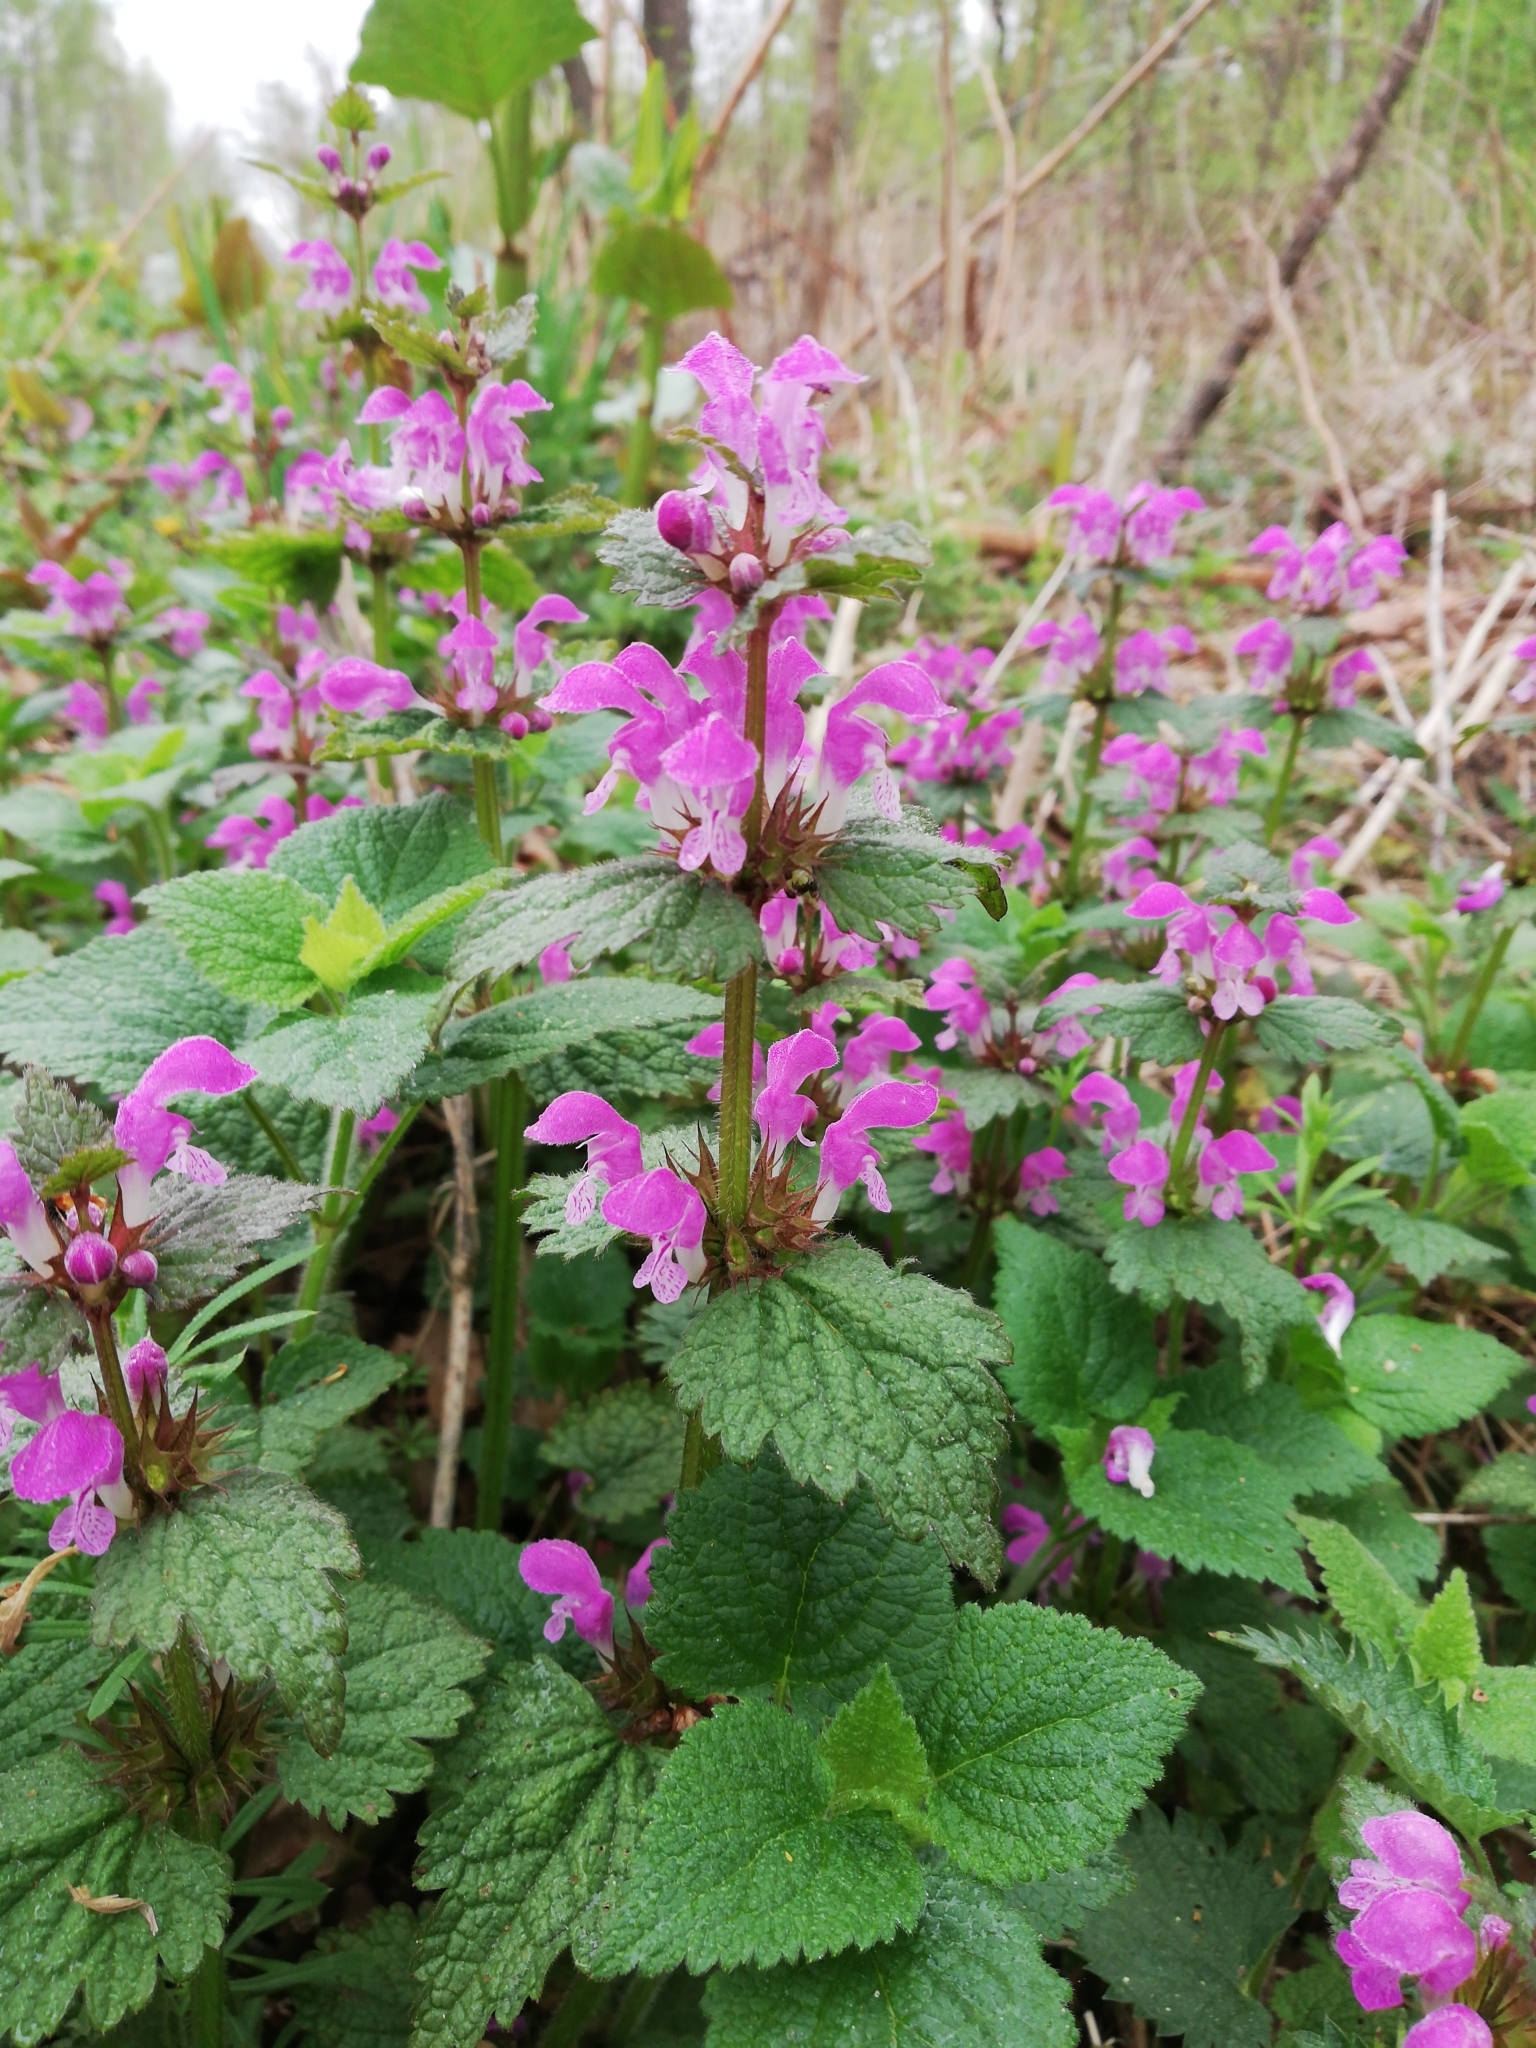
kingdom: Plantae
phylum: Tracheophyta
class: Magnoliopsida
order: Lamiales
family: Lamiaceae
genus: Lamium
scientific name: Lamium maculatum
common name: Spotted dead-nettle
